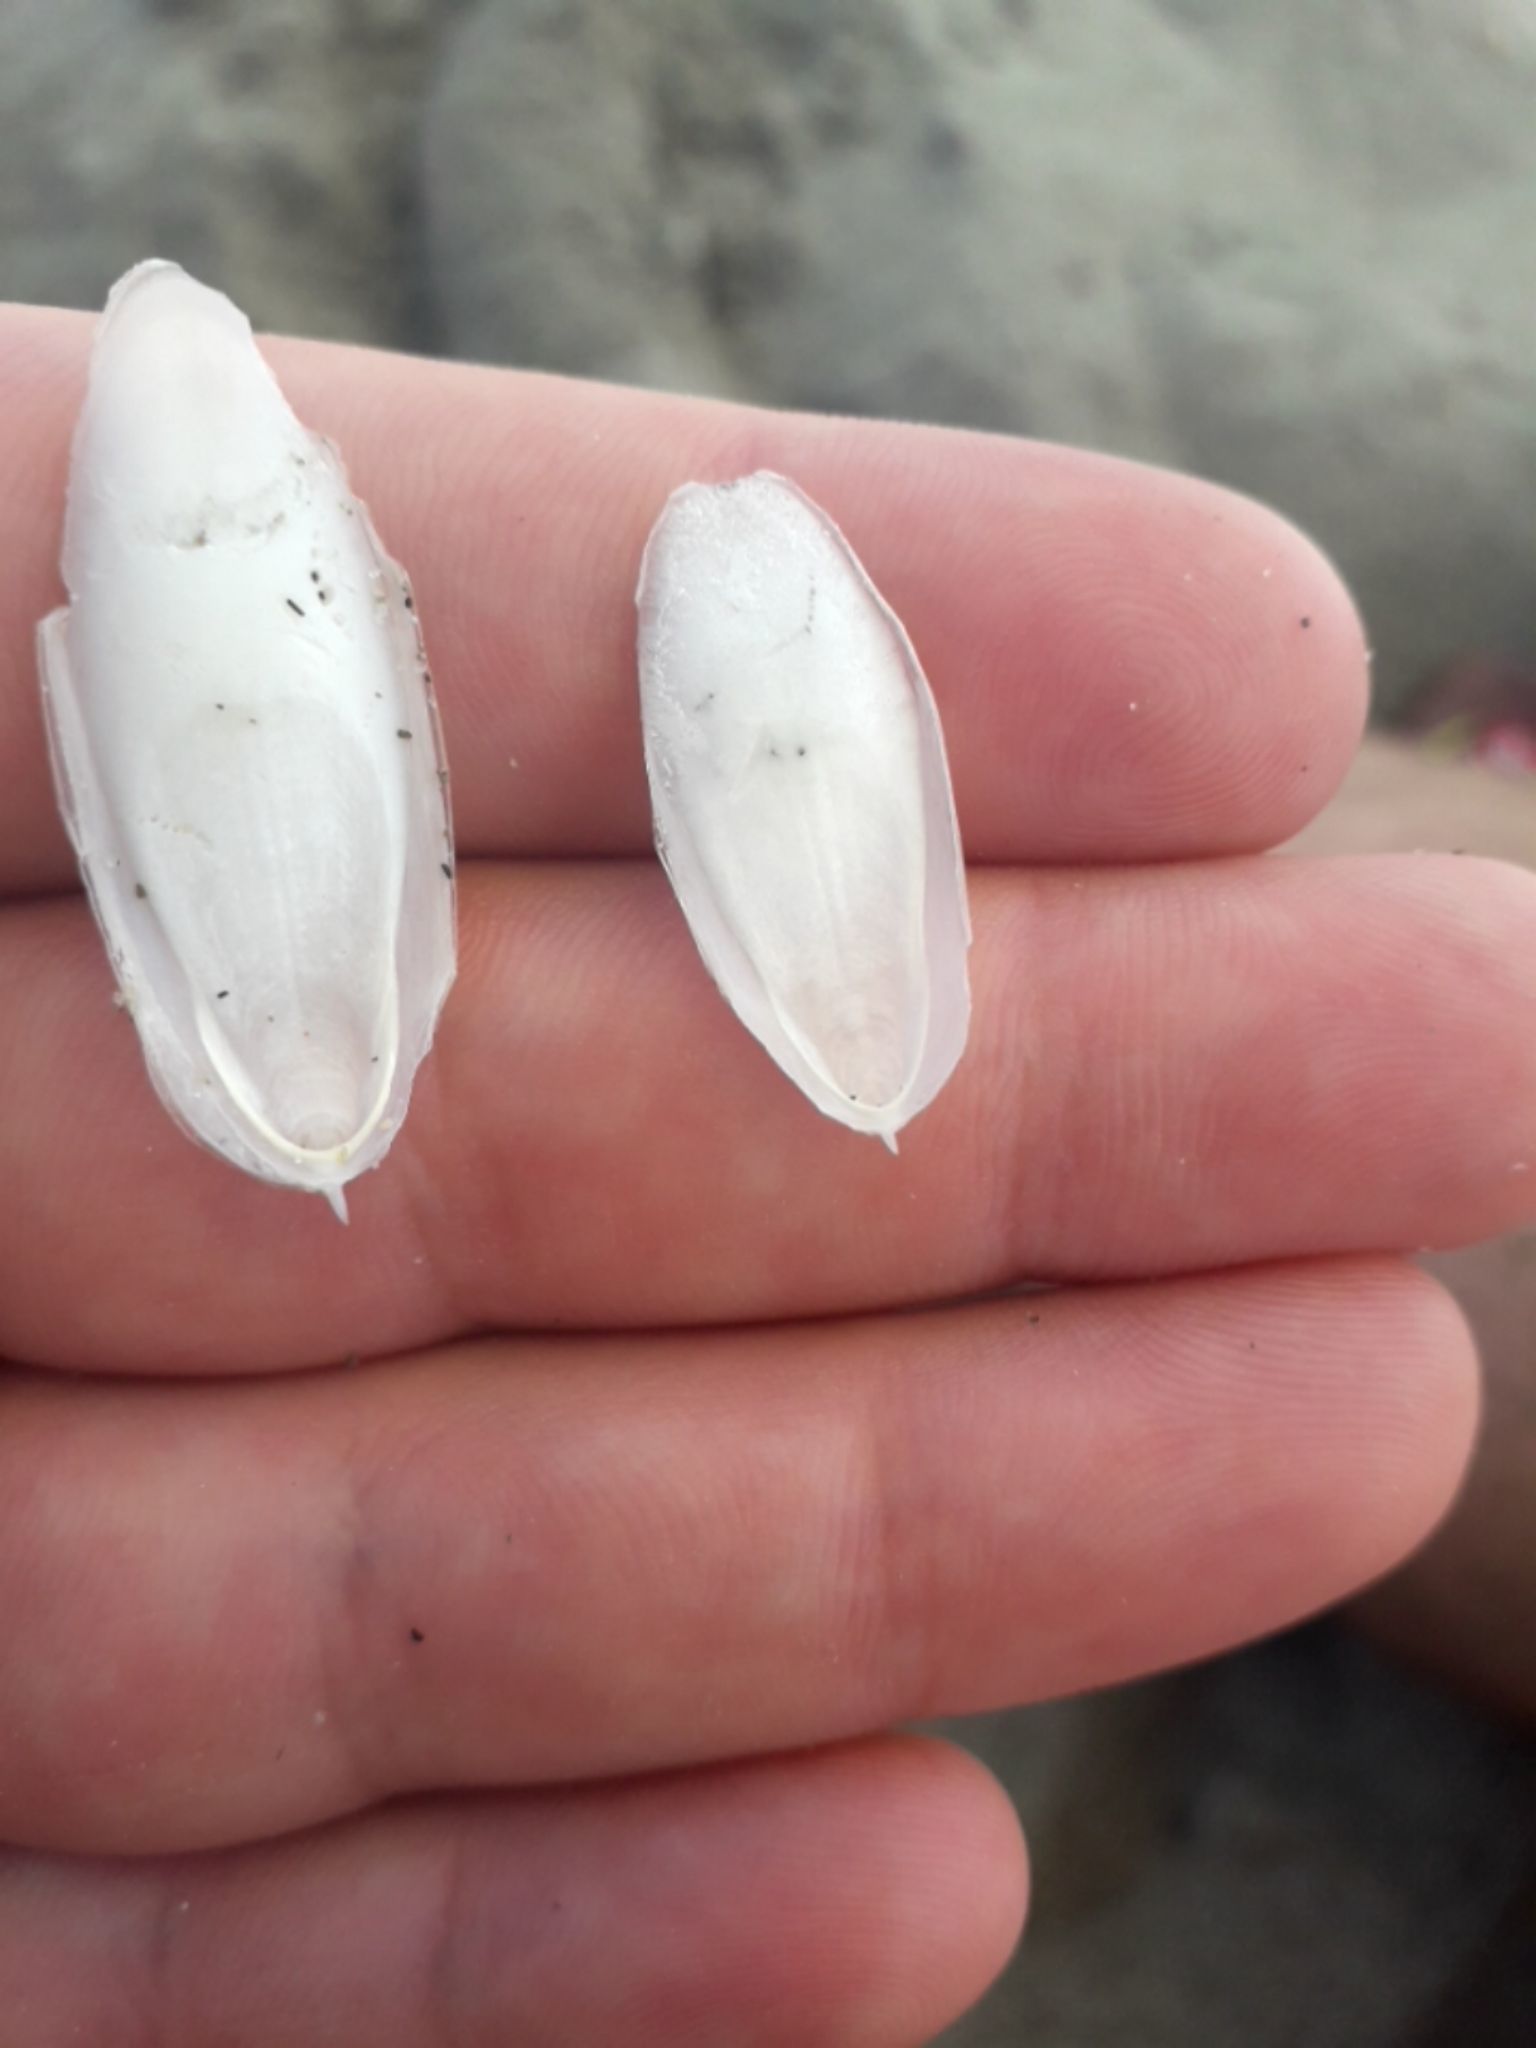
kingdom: Animalia
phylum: Mollusca
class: Cephalopoda
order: Sepiida
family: Sepiidae
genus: Sepia
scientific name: Sepia officinalis
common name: Common cuttlefish
